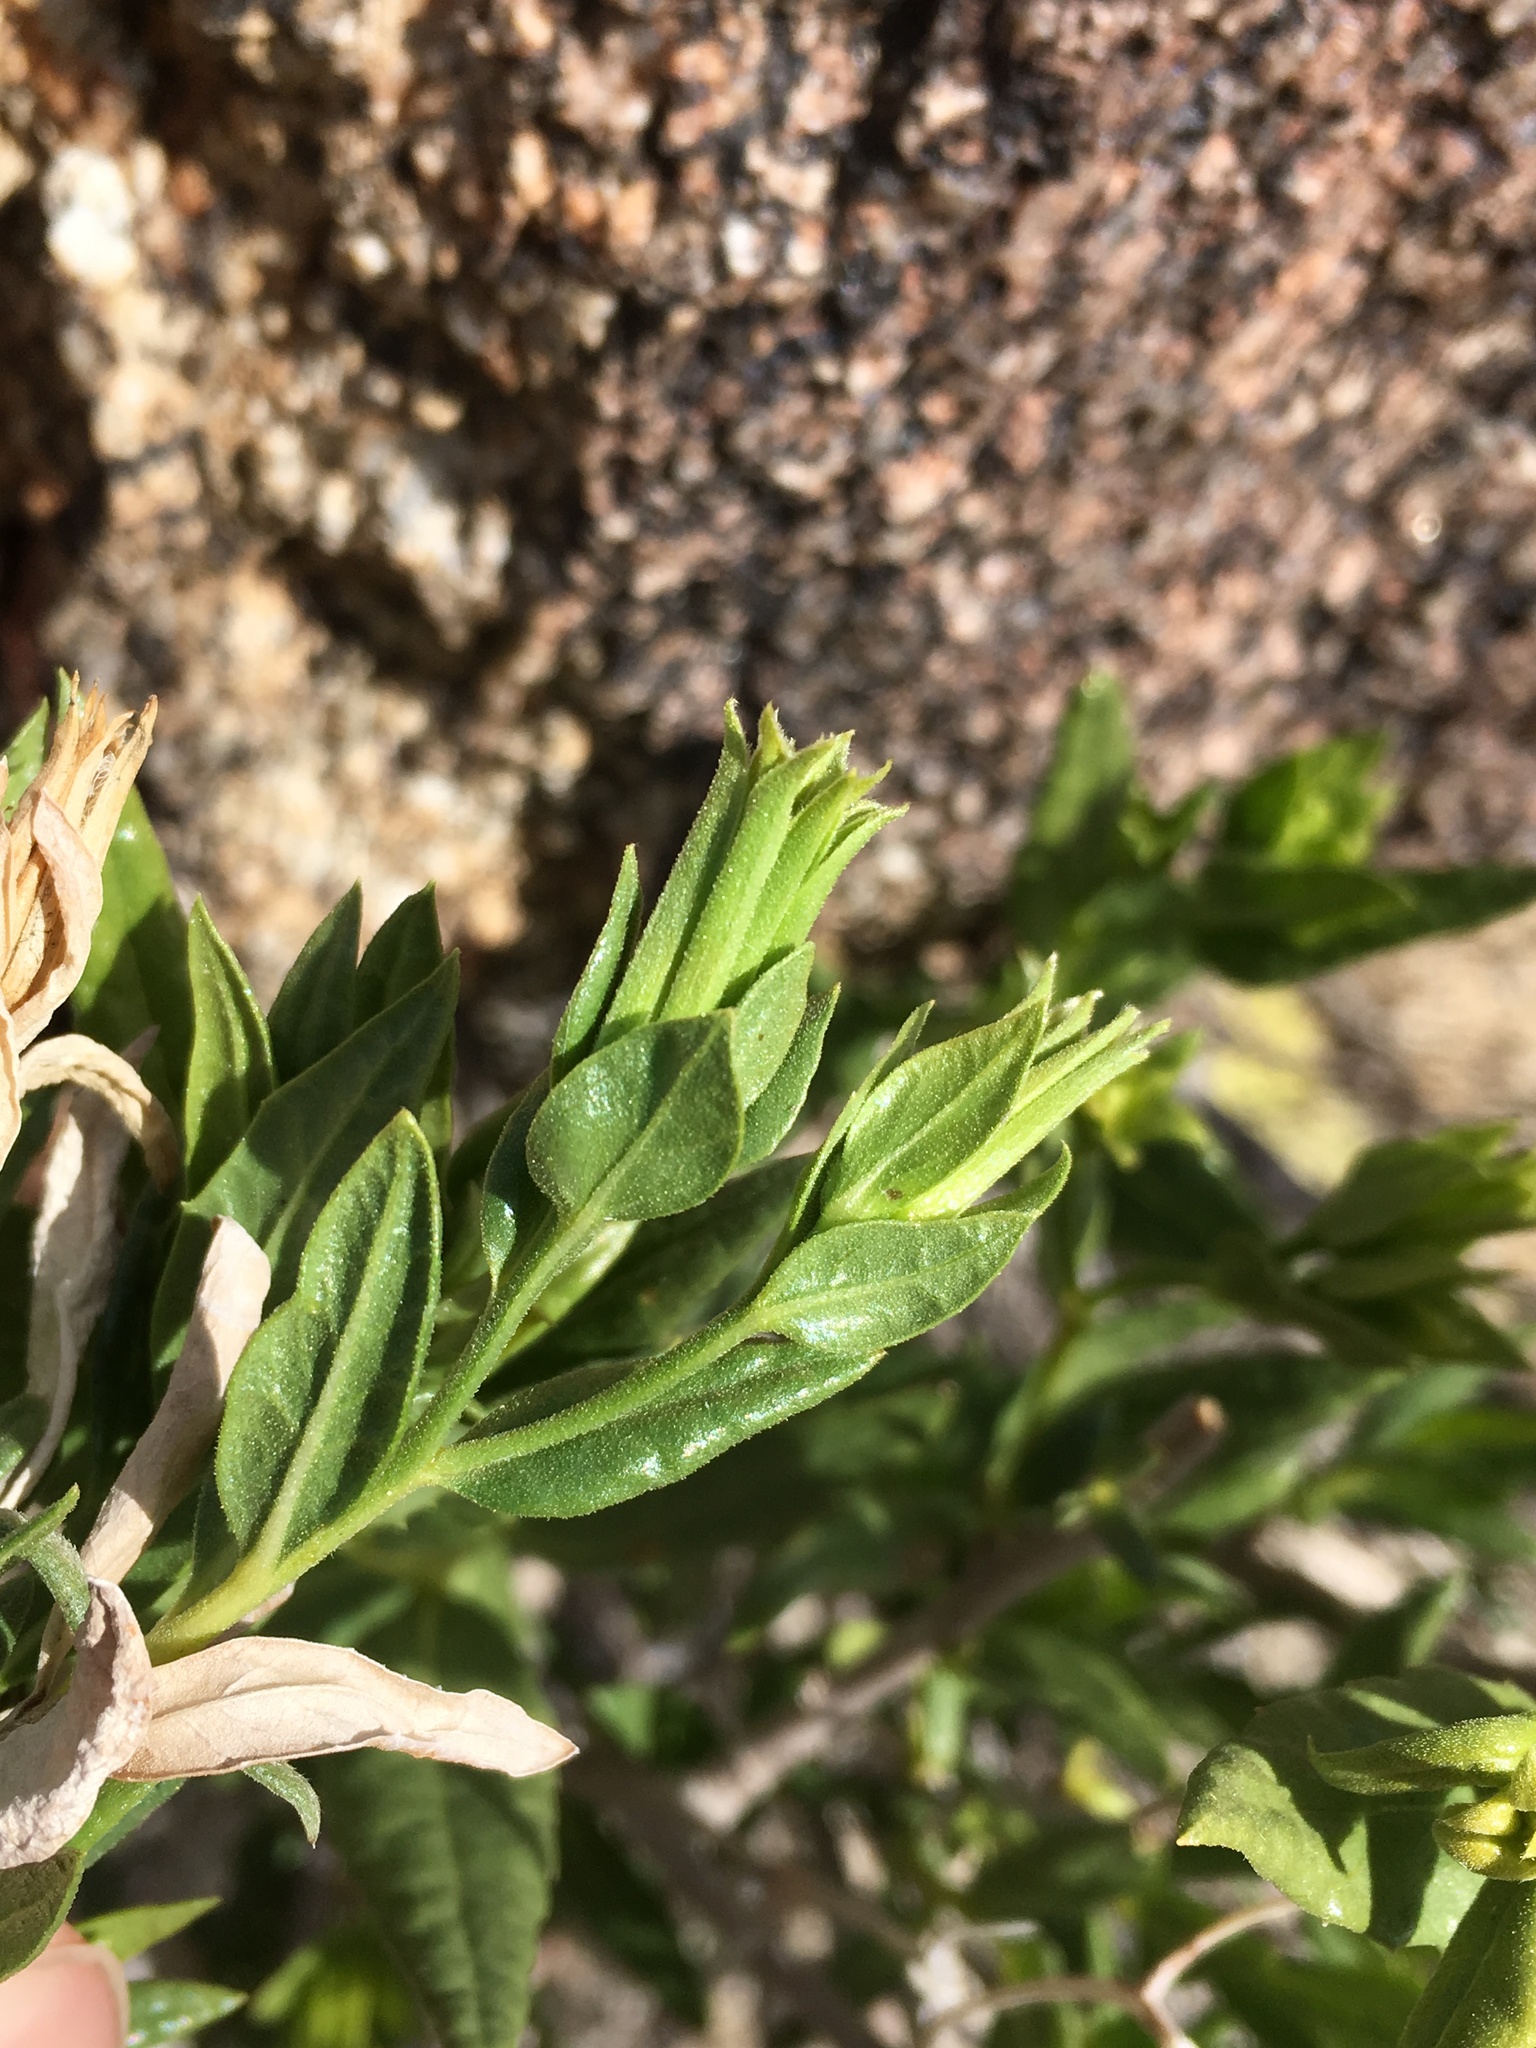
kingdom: Plantae
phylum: Tracheophyta
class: Magnoliopsida
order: Asterales
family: Asteraceae
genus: Trixis
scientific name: Trixis californica
